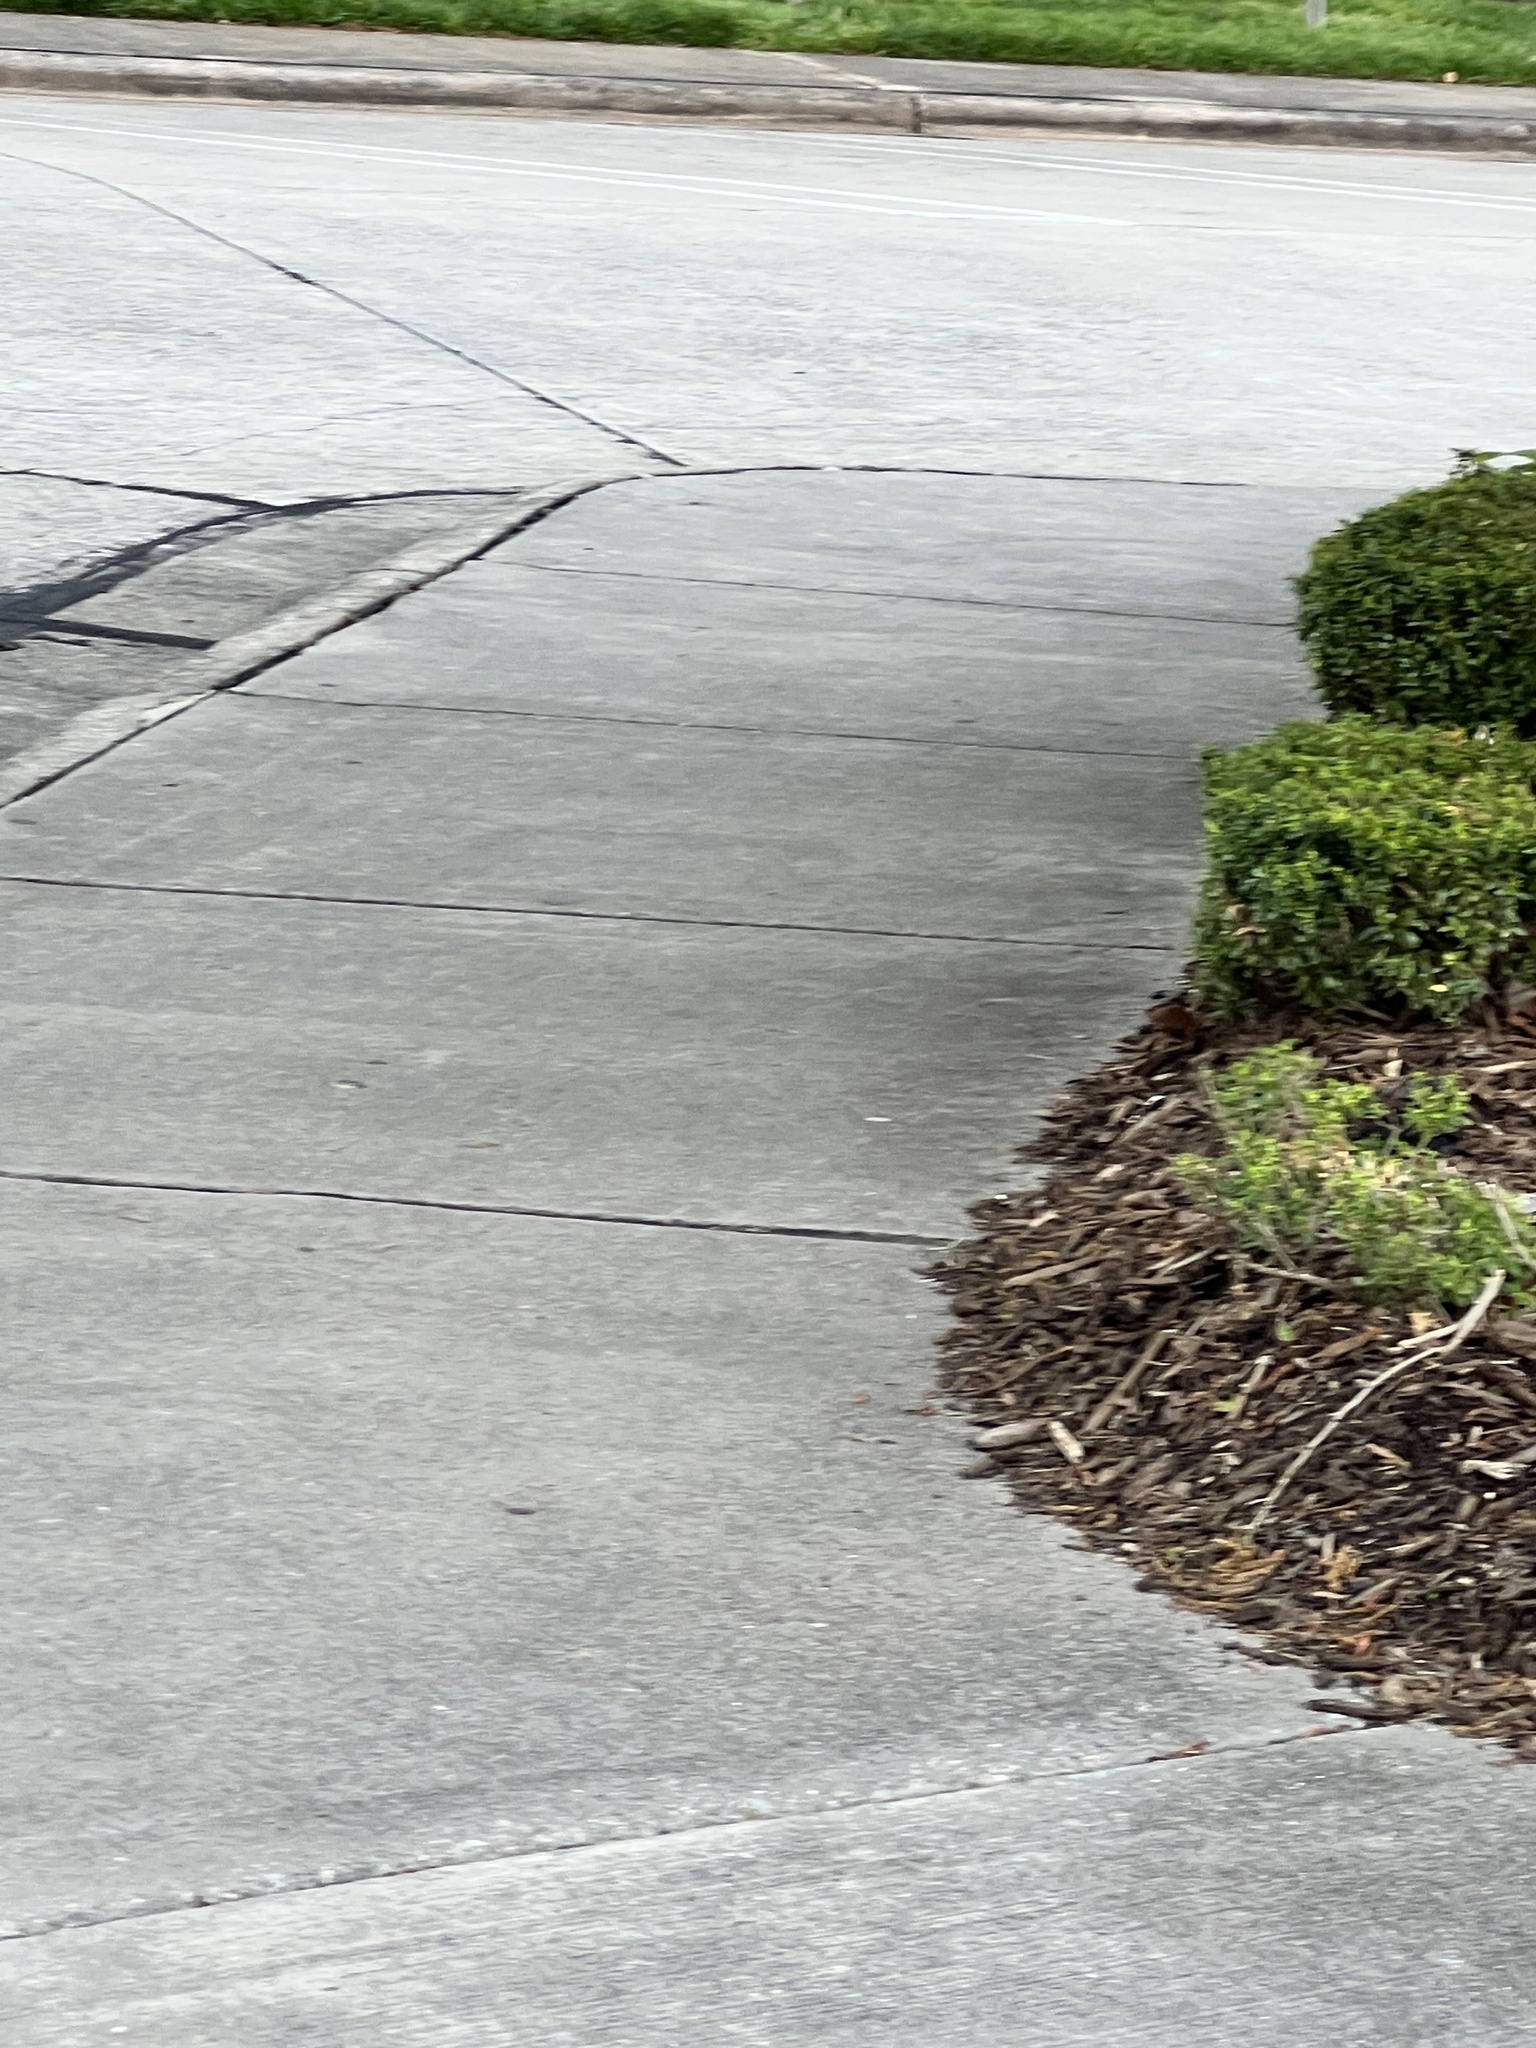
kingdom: Animalia
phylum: Chordata
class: Mammalia
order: Rodentia
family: Sciuridae
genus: Sciurus
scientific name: Sciurus carolinensis
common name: Eastern gray squirrel
